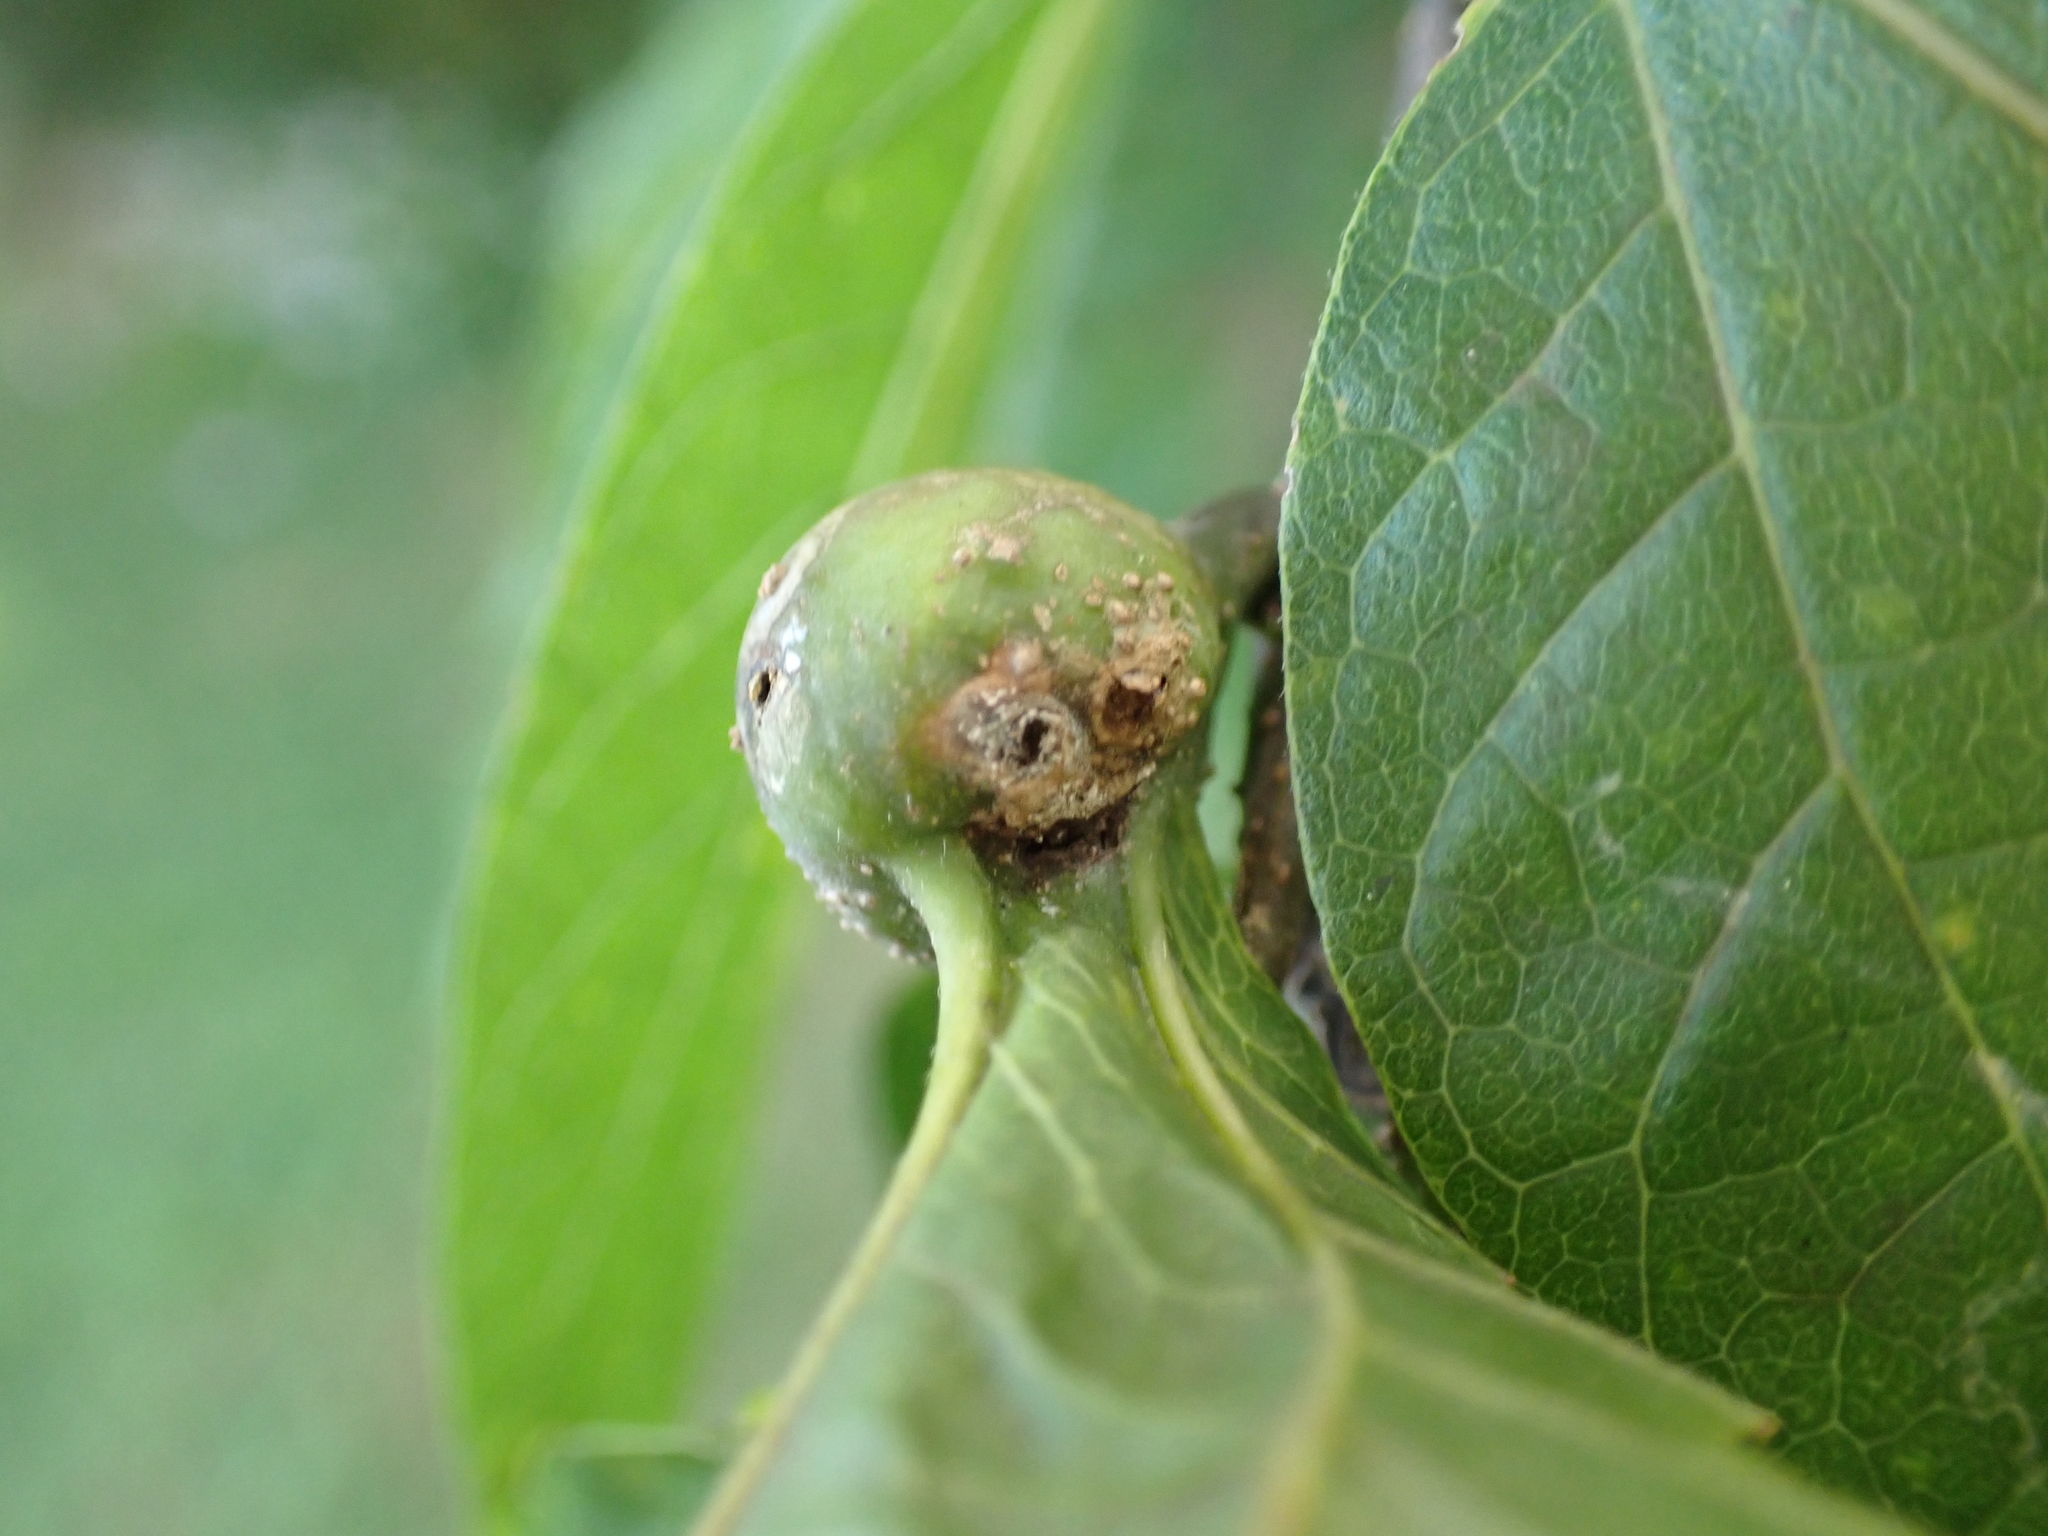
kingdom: Animalia
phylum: Arthropoda
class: Insecta
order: Hemiptera
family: Aphalaridae
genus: Pachypsylla
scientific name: Pachypsylla venusta
